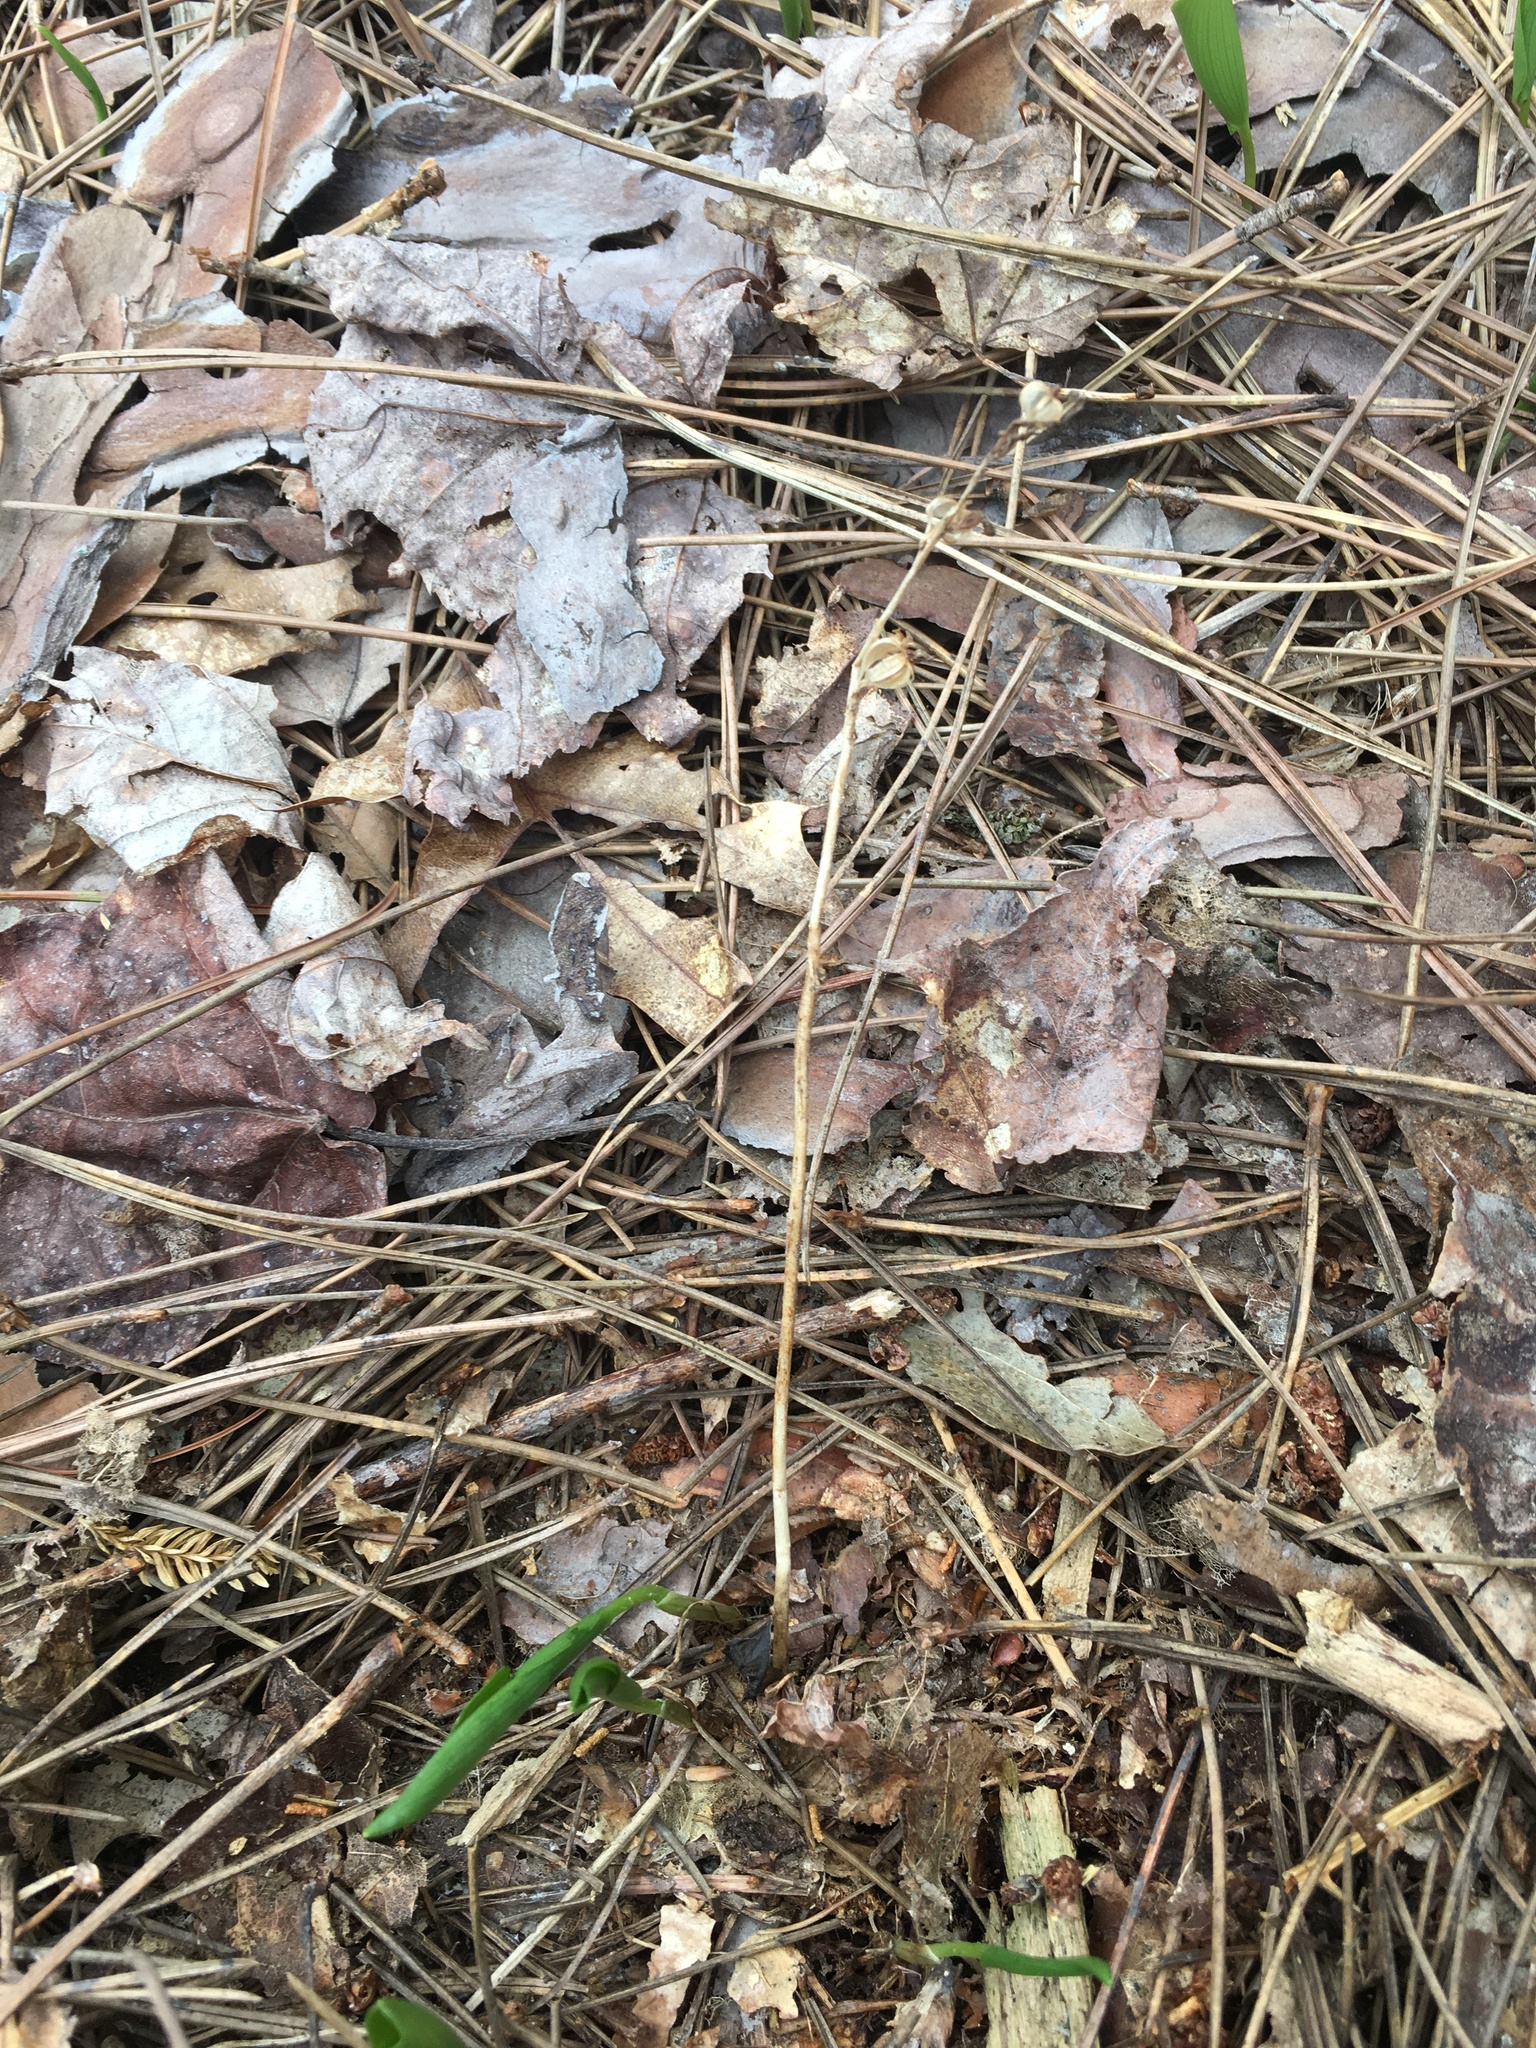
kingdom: Plantae
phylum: Tracheophyta
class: Liliopsida
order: Asparagales
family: Orchidaceae
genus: Goodyera
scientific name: Goodyera tesselata
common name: Checkered rattlesnake-plantain
